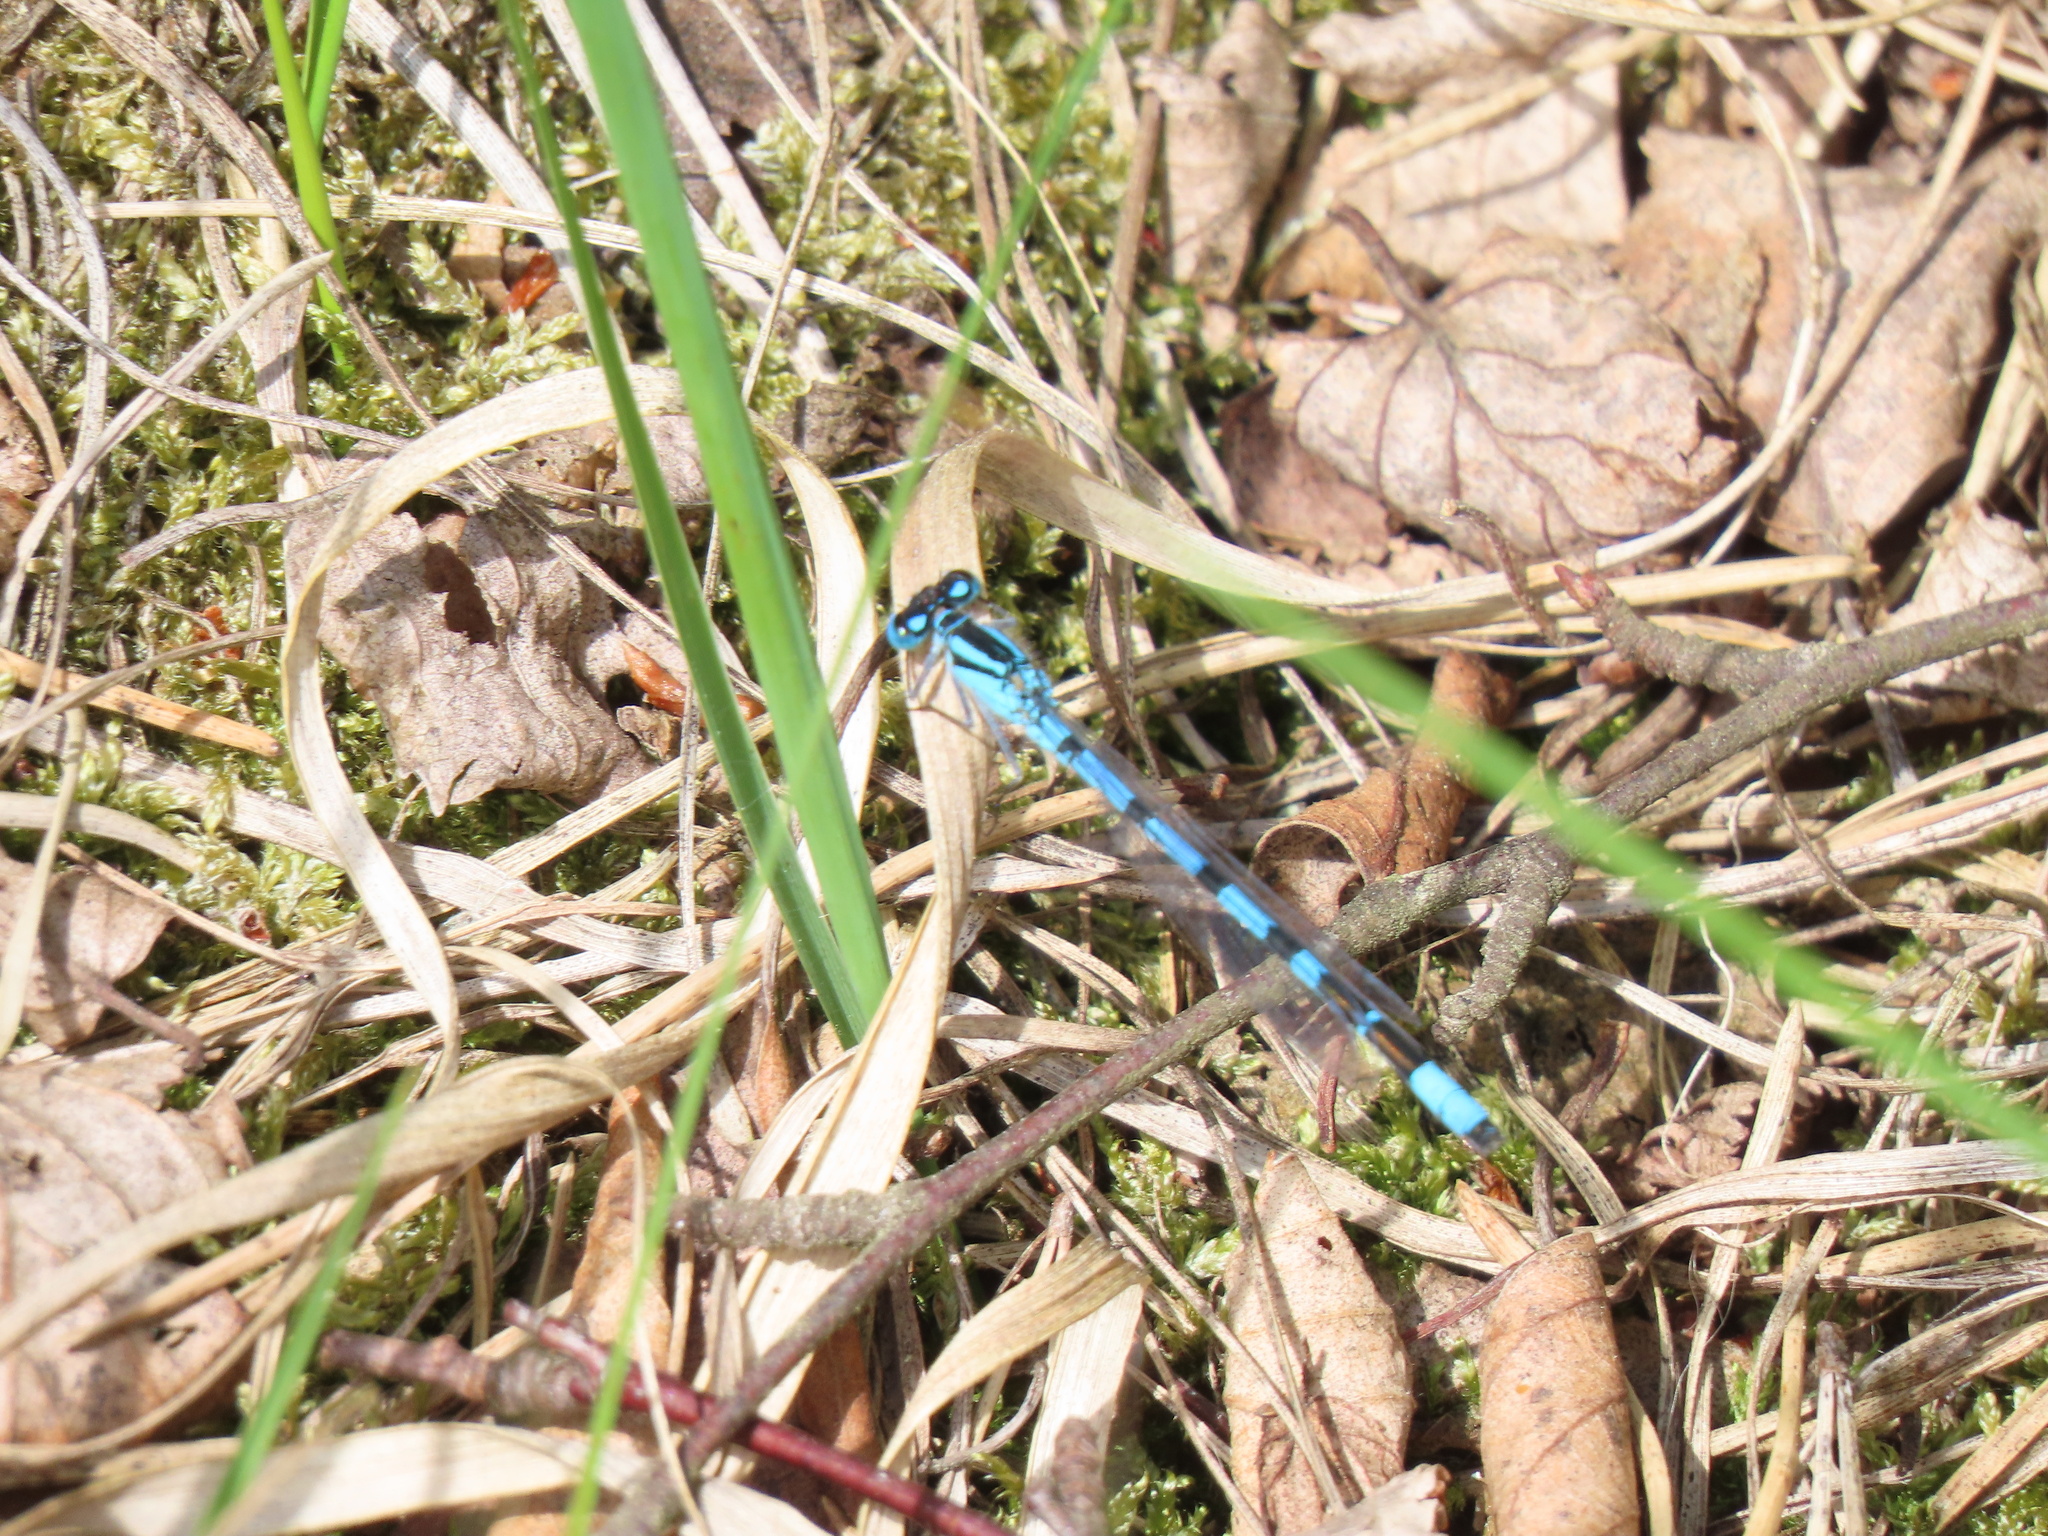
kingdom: Animalia
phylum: Arthropoda
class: Insecta
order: Odonata
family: Coenagrionidae
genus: Enallagma
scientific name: Enallagma cyathigerum
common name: Common blue damselfly
